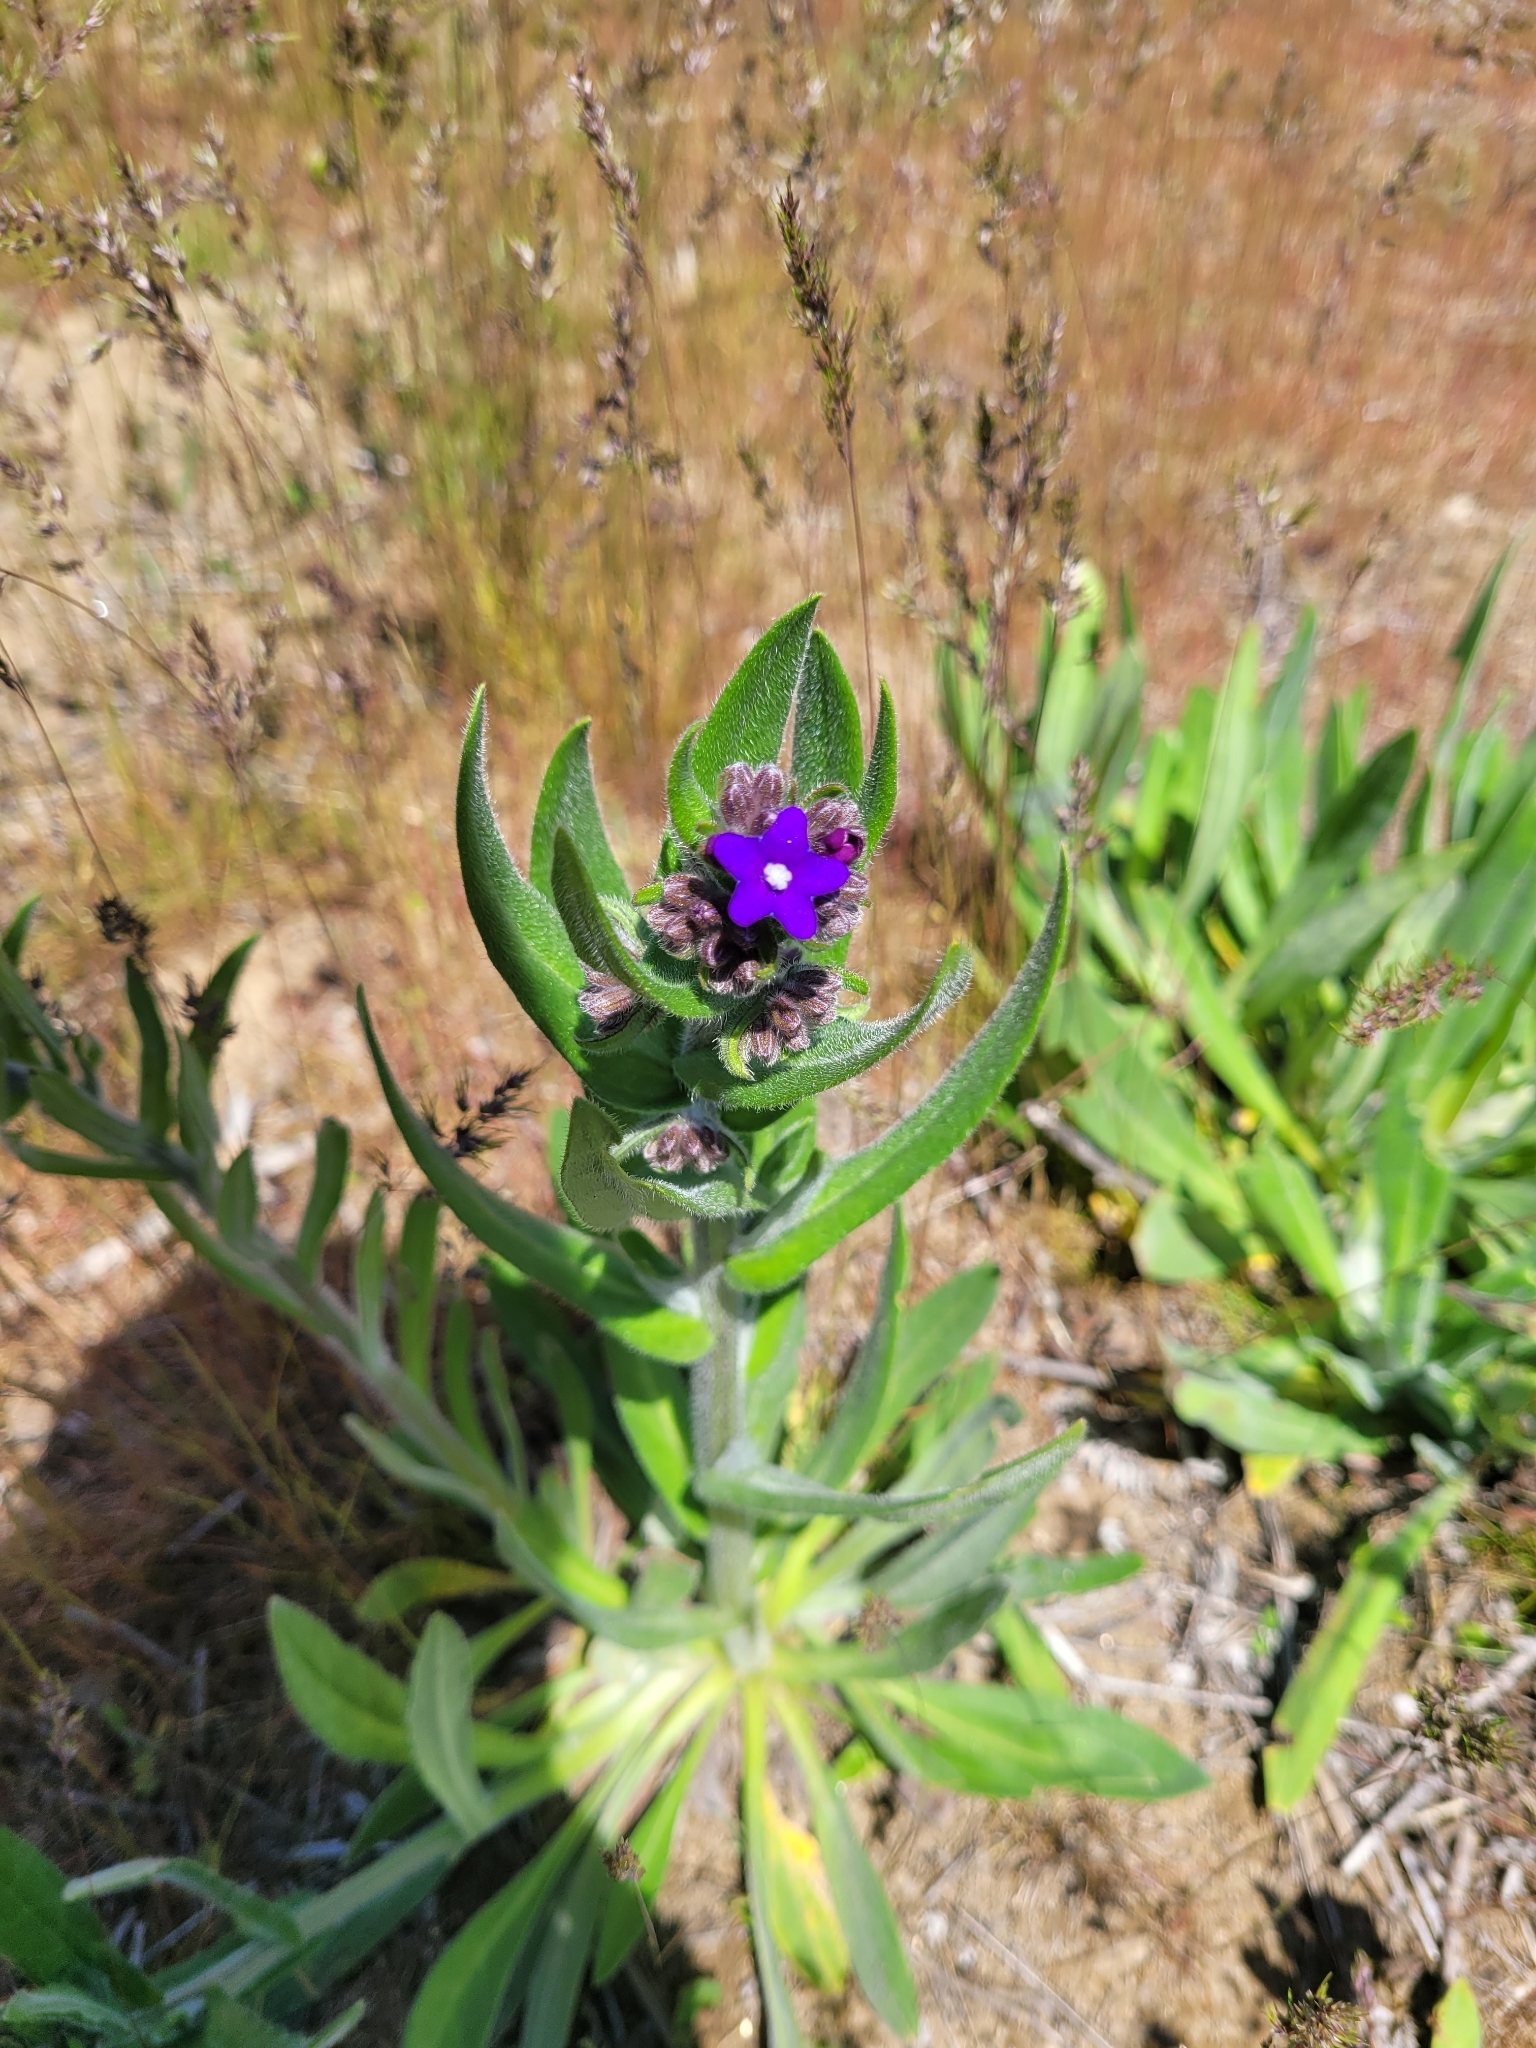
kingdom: Plantae
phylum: Tracheophyta
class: Magnoliopsida
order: Boraginales
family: Boraginaceae
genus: Anchusa
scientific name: Anchusa officinalis
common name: Alkanet
